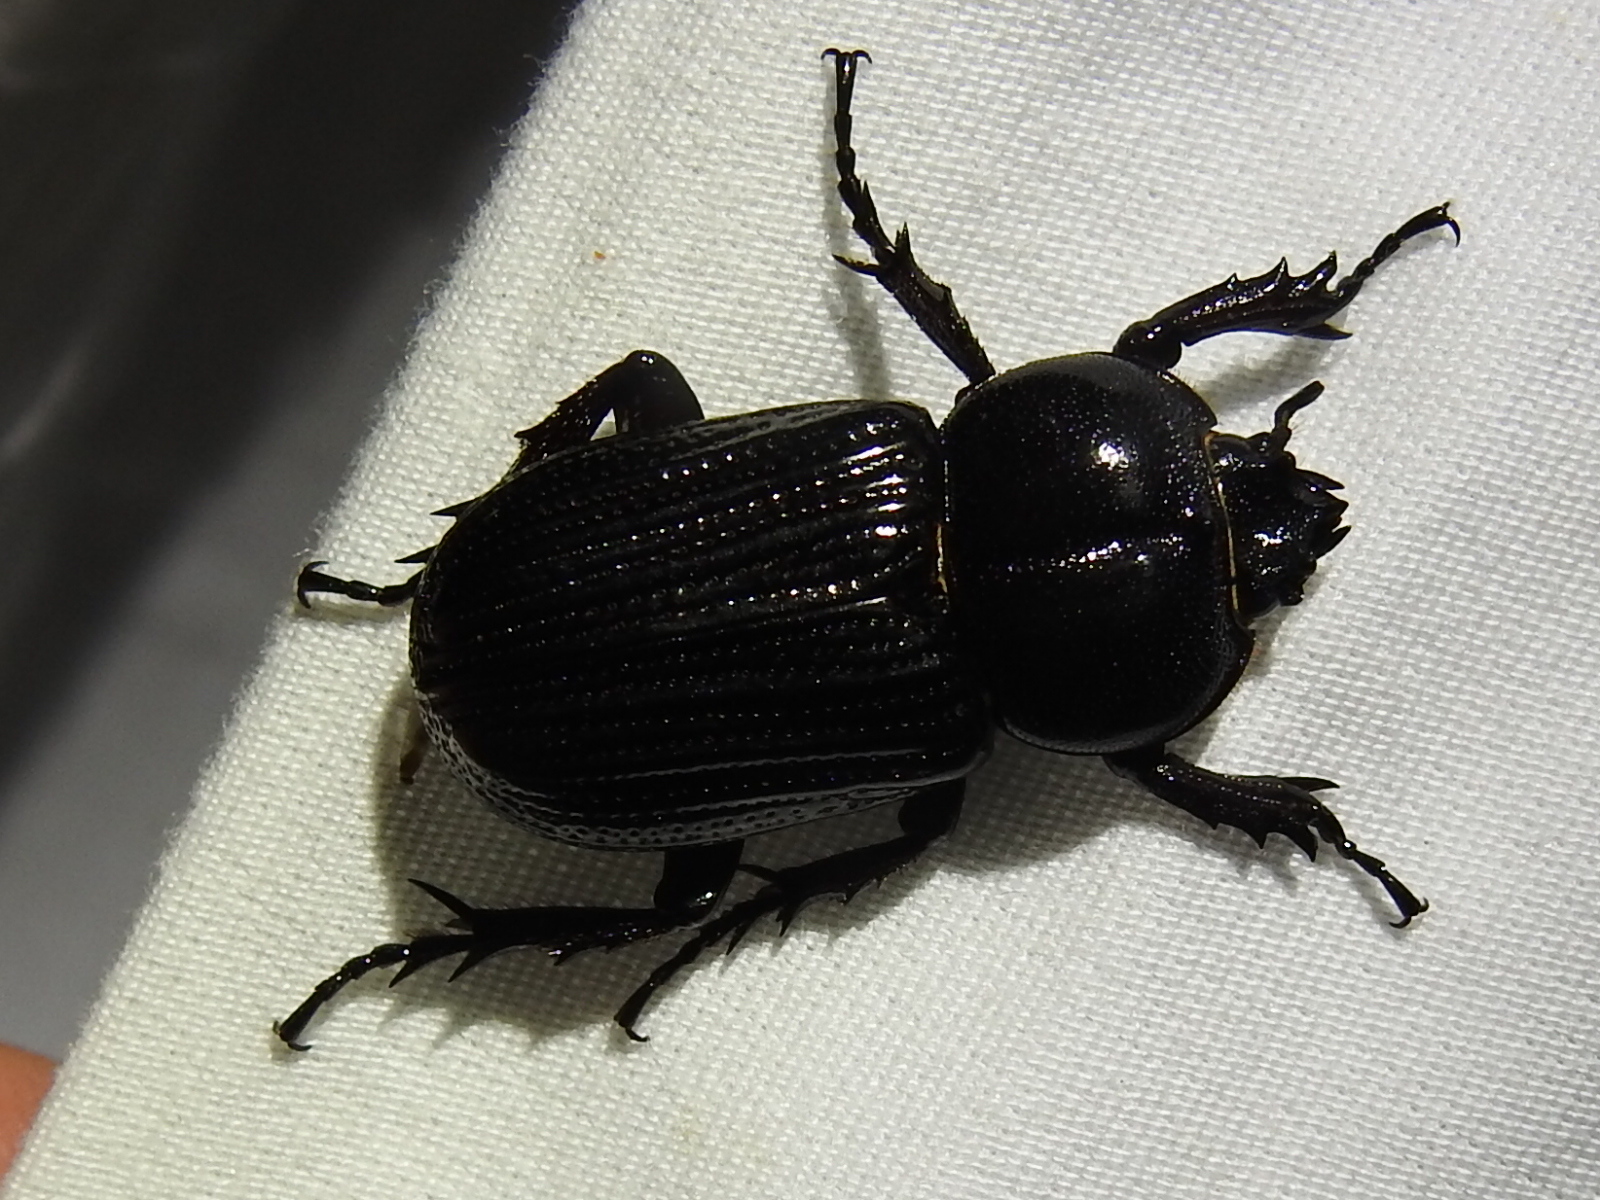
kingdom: Animalia
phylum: Arthropoda
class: Insecta
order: Coleoptera
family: Scarabaeidae
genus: Phileurus
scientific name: Phileurus valgus
